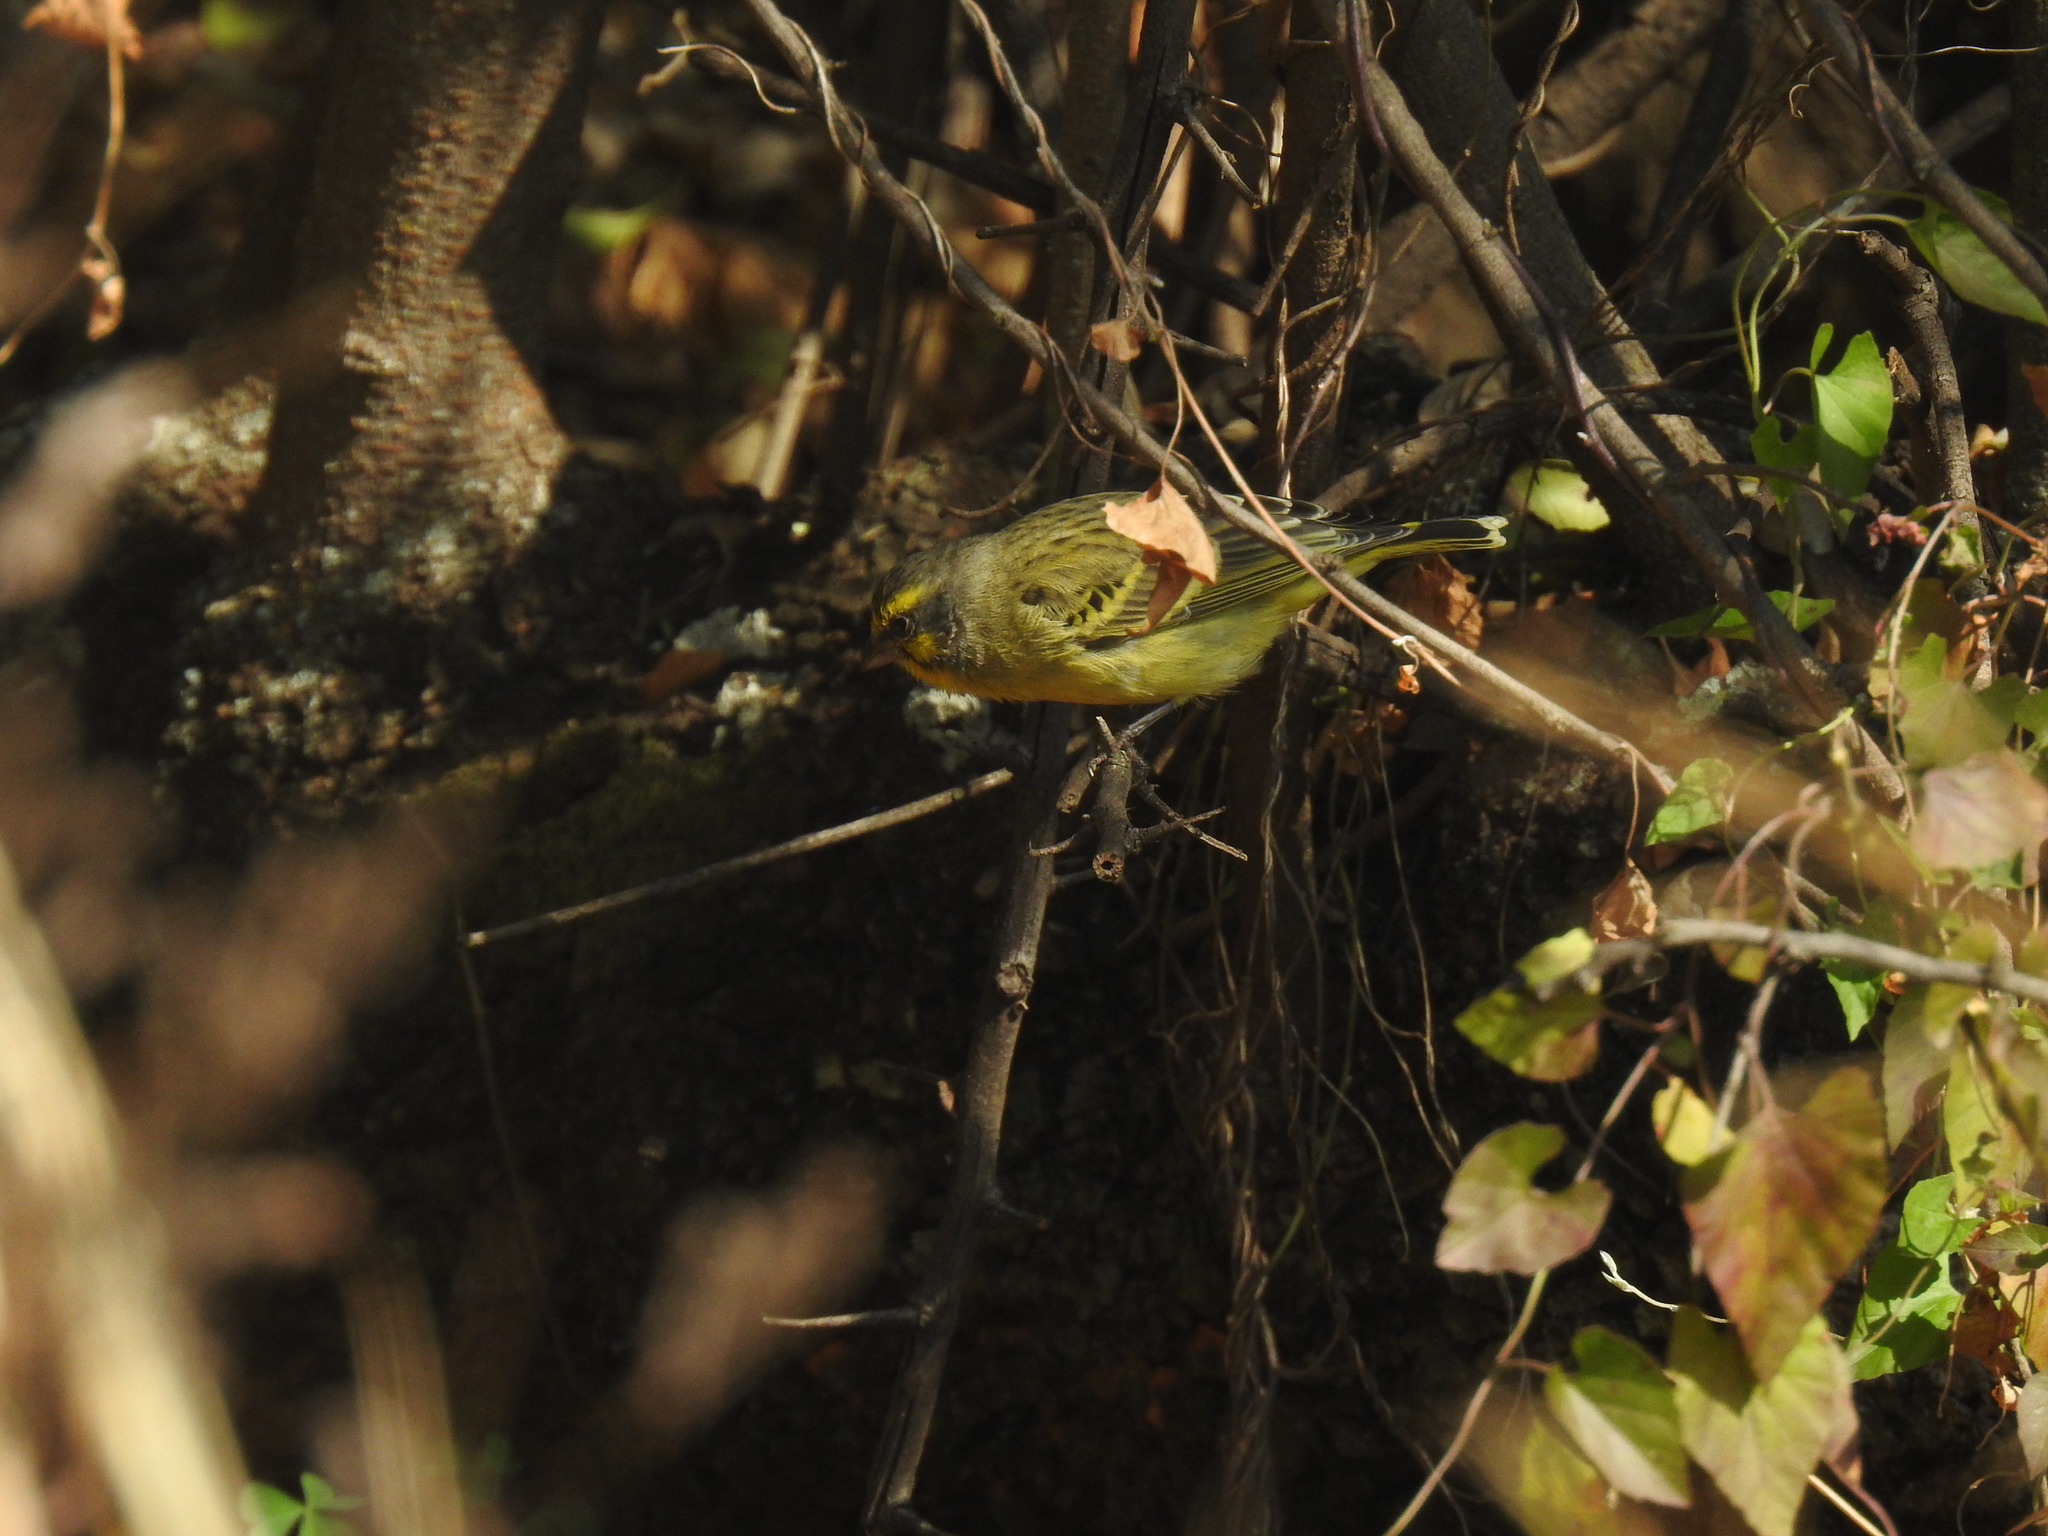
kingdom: Animalia
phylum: Chordata
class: Aves
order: Passeriformes
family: Fringillidae
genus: Crithagra
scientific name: Crithagra mozambica
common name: Yellow-fronted canary
